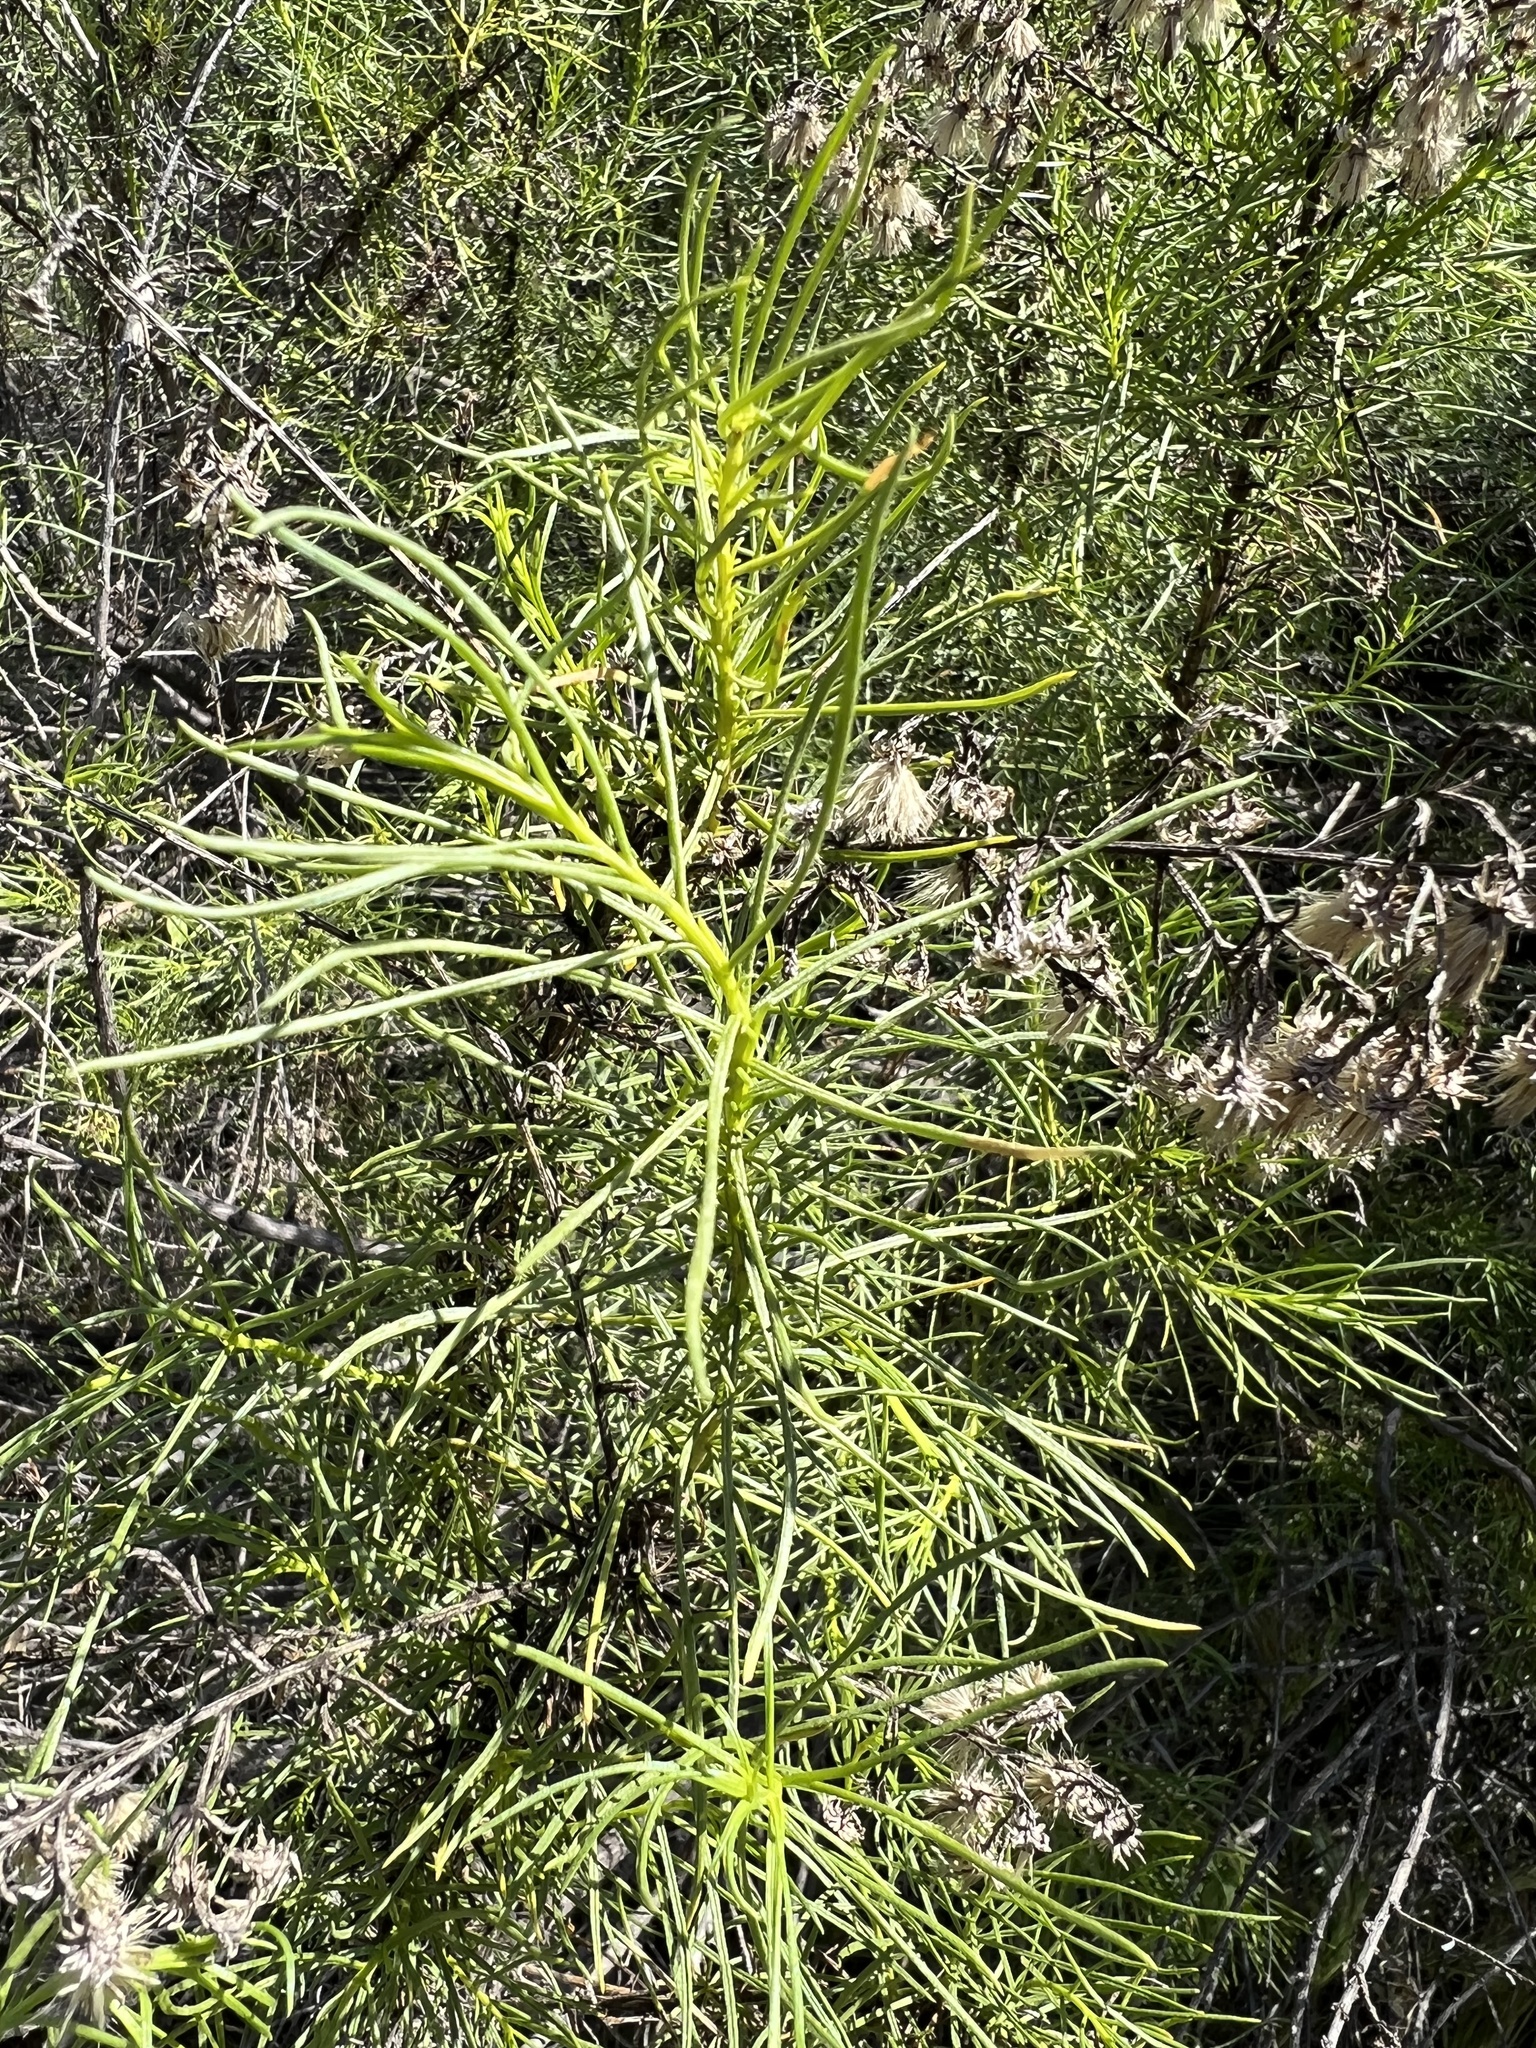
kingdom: Plantae
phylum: Tracheophyta
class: Magnoliopsida
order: Asterales
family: Asteraceae
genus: Ericameria
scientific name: Ericameria palmeri
